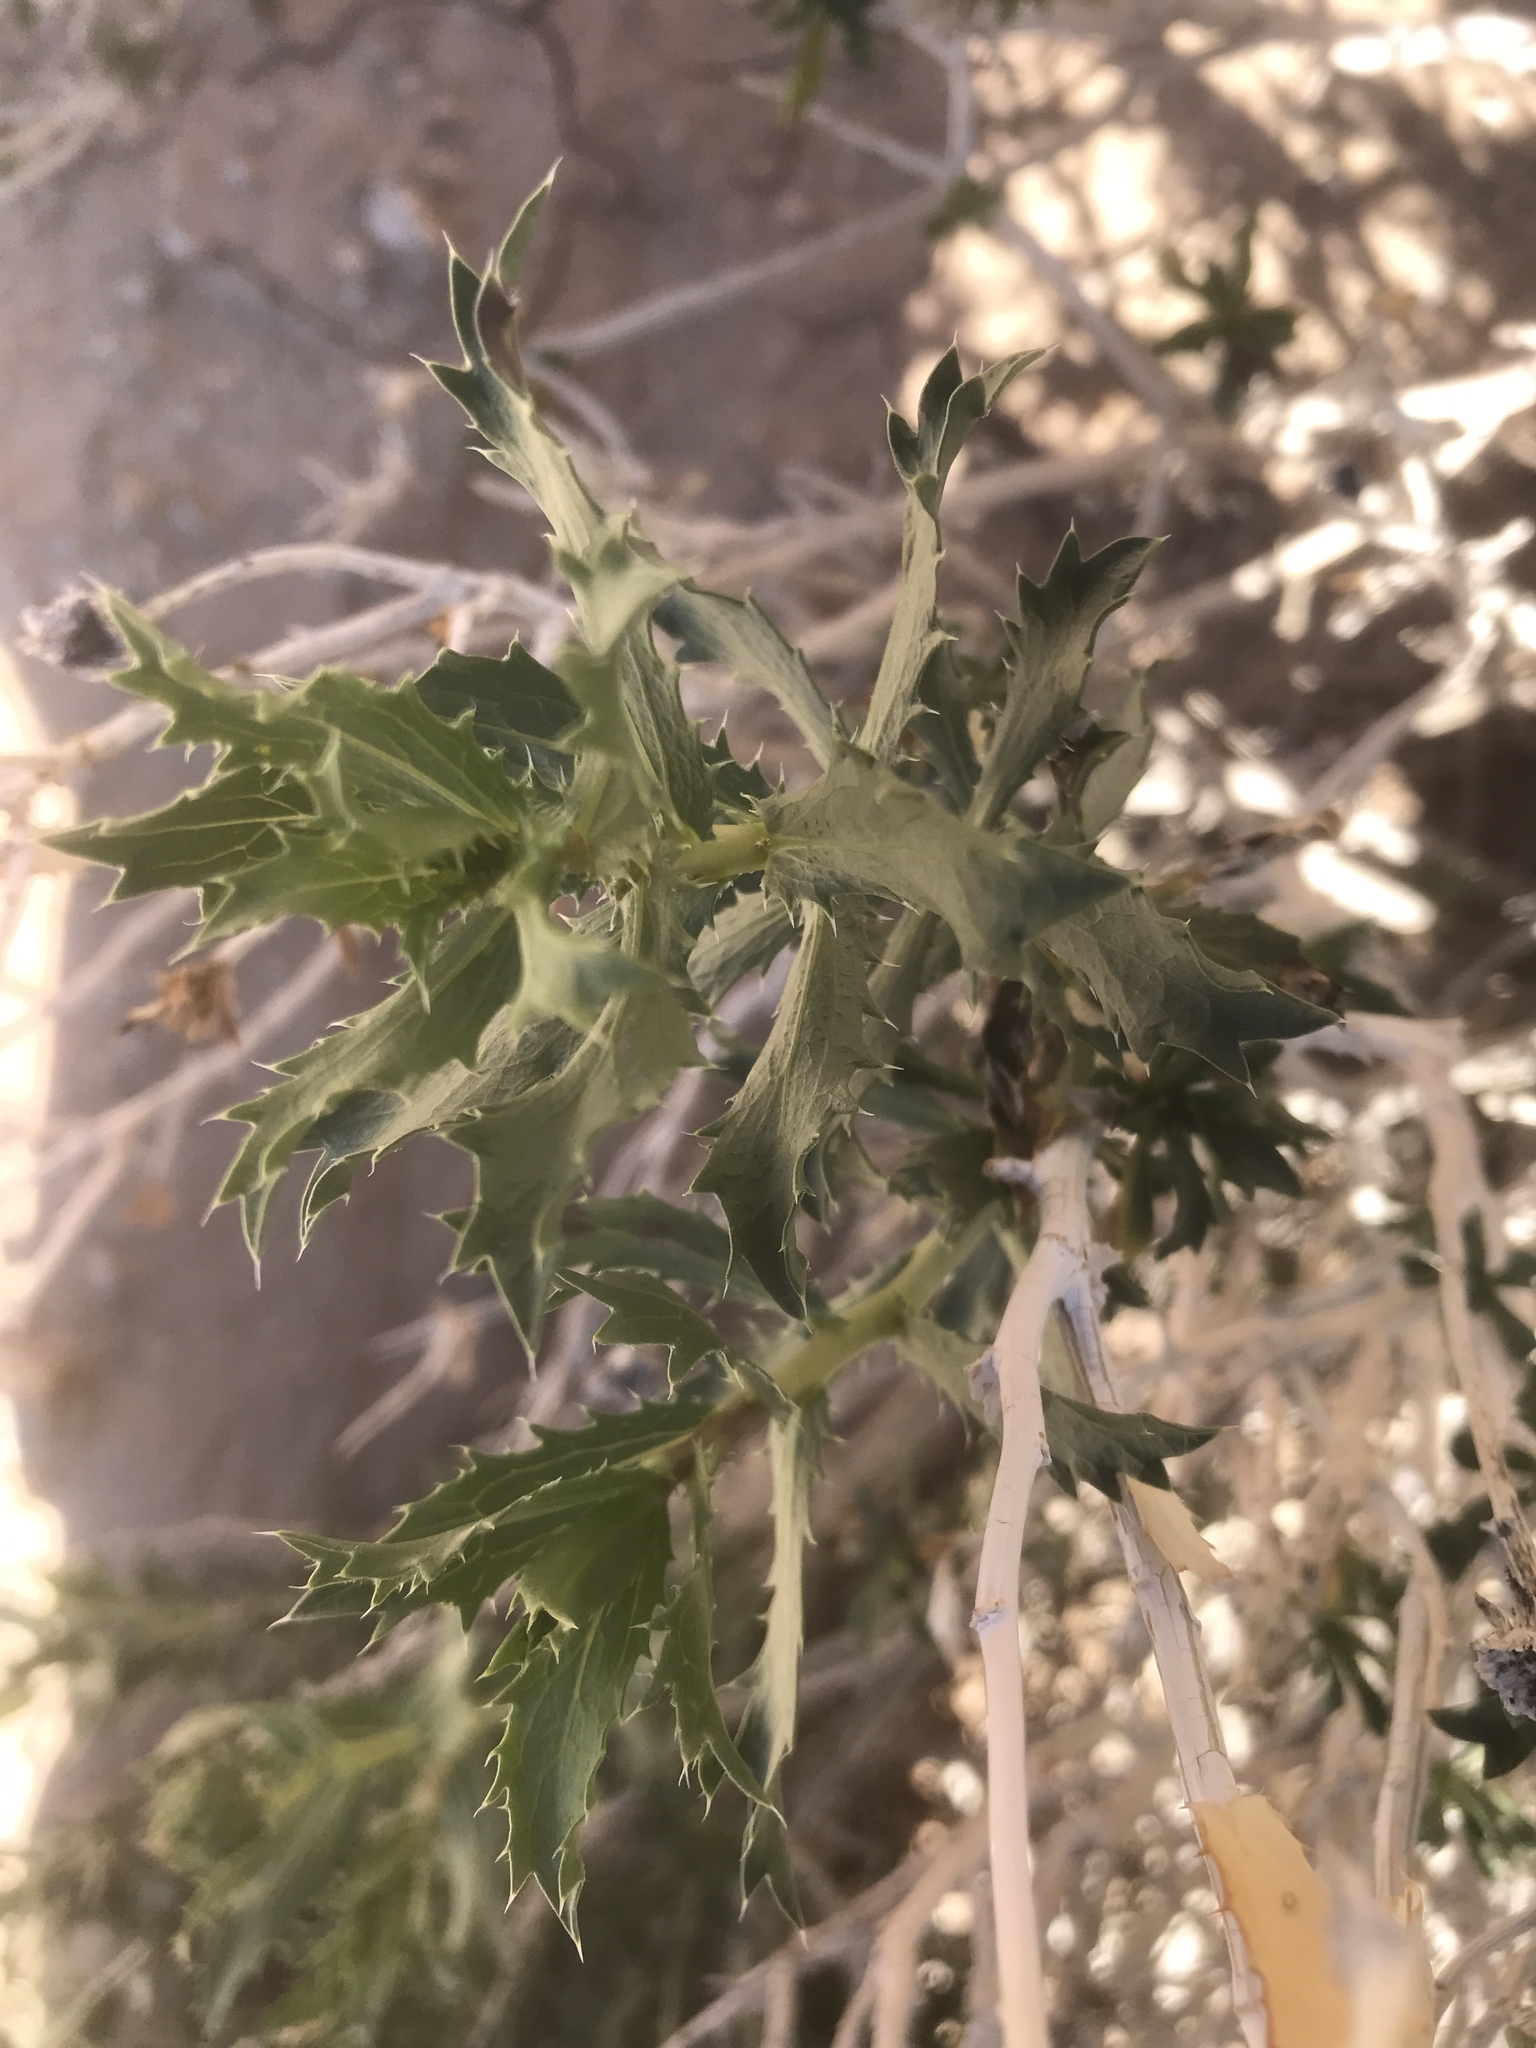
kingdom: Plantae
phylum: Tracheophyta
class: Magnoliopsida
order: Asterales
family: Asteraceae
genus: Xylorhiza
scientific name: Xylorhiza orcuttii
